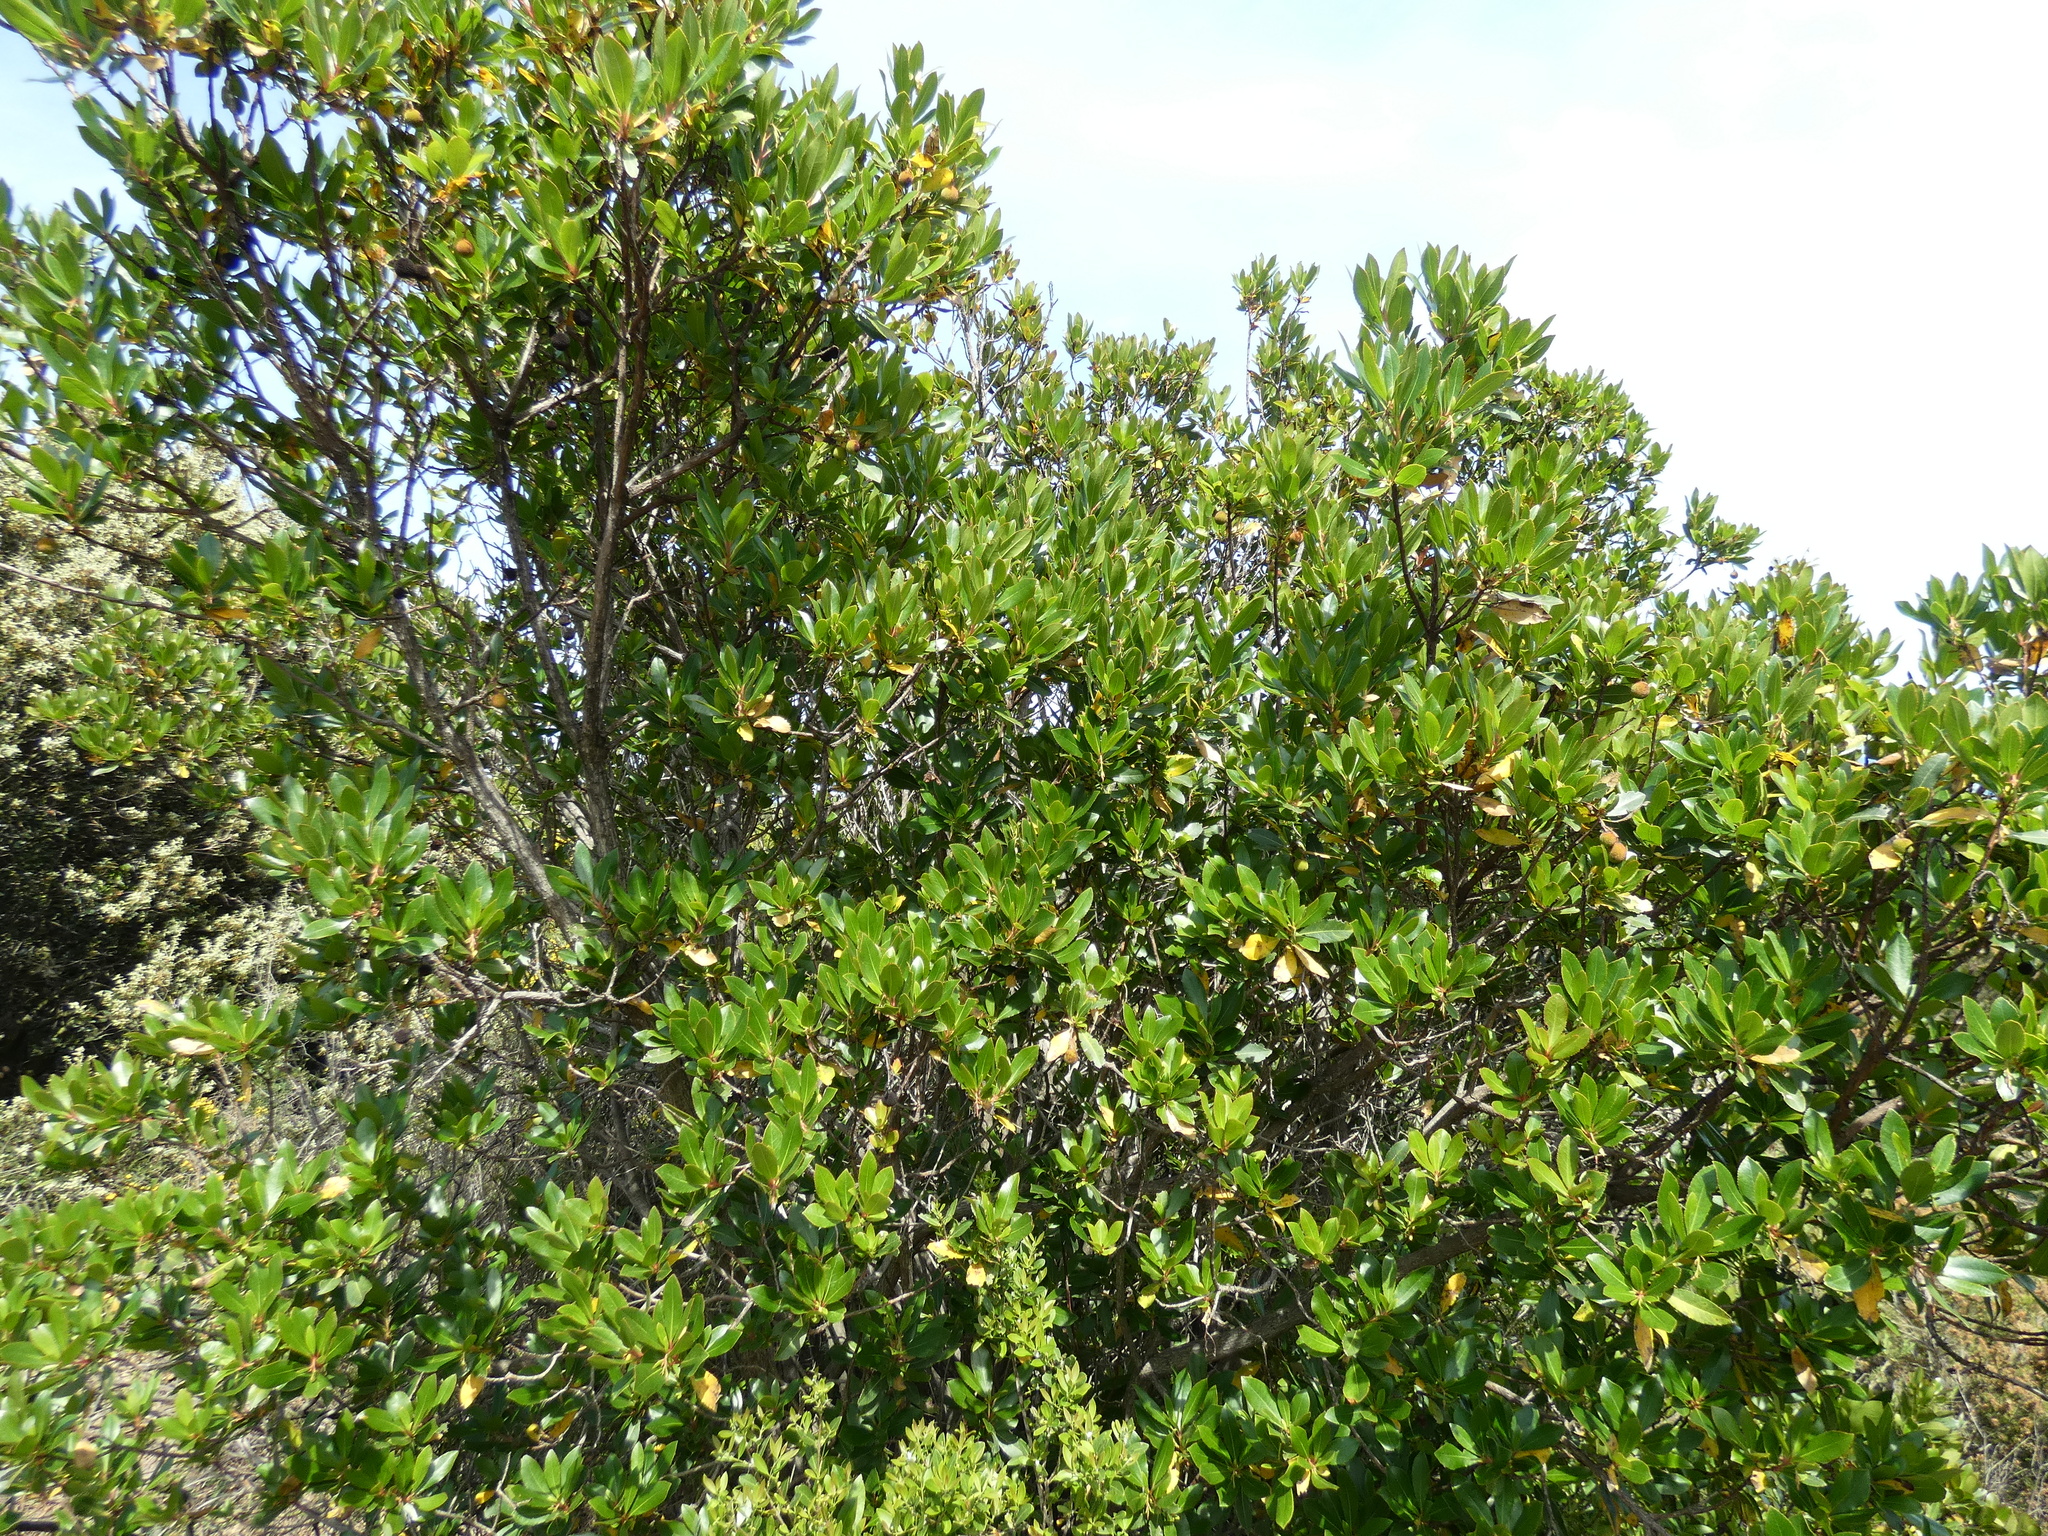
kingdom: Plantae
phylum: Tracheophyta
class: Magnoliopsida
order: Ericales
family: Ericaceae
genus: Arbutus
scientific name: Arbutus unedo
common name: Strawberry-tree
